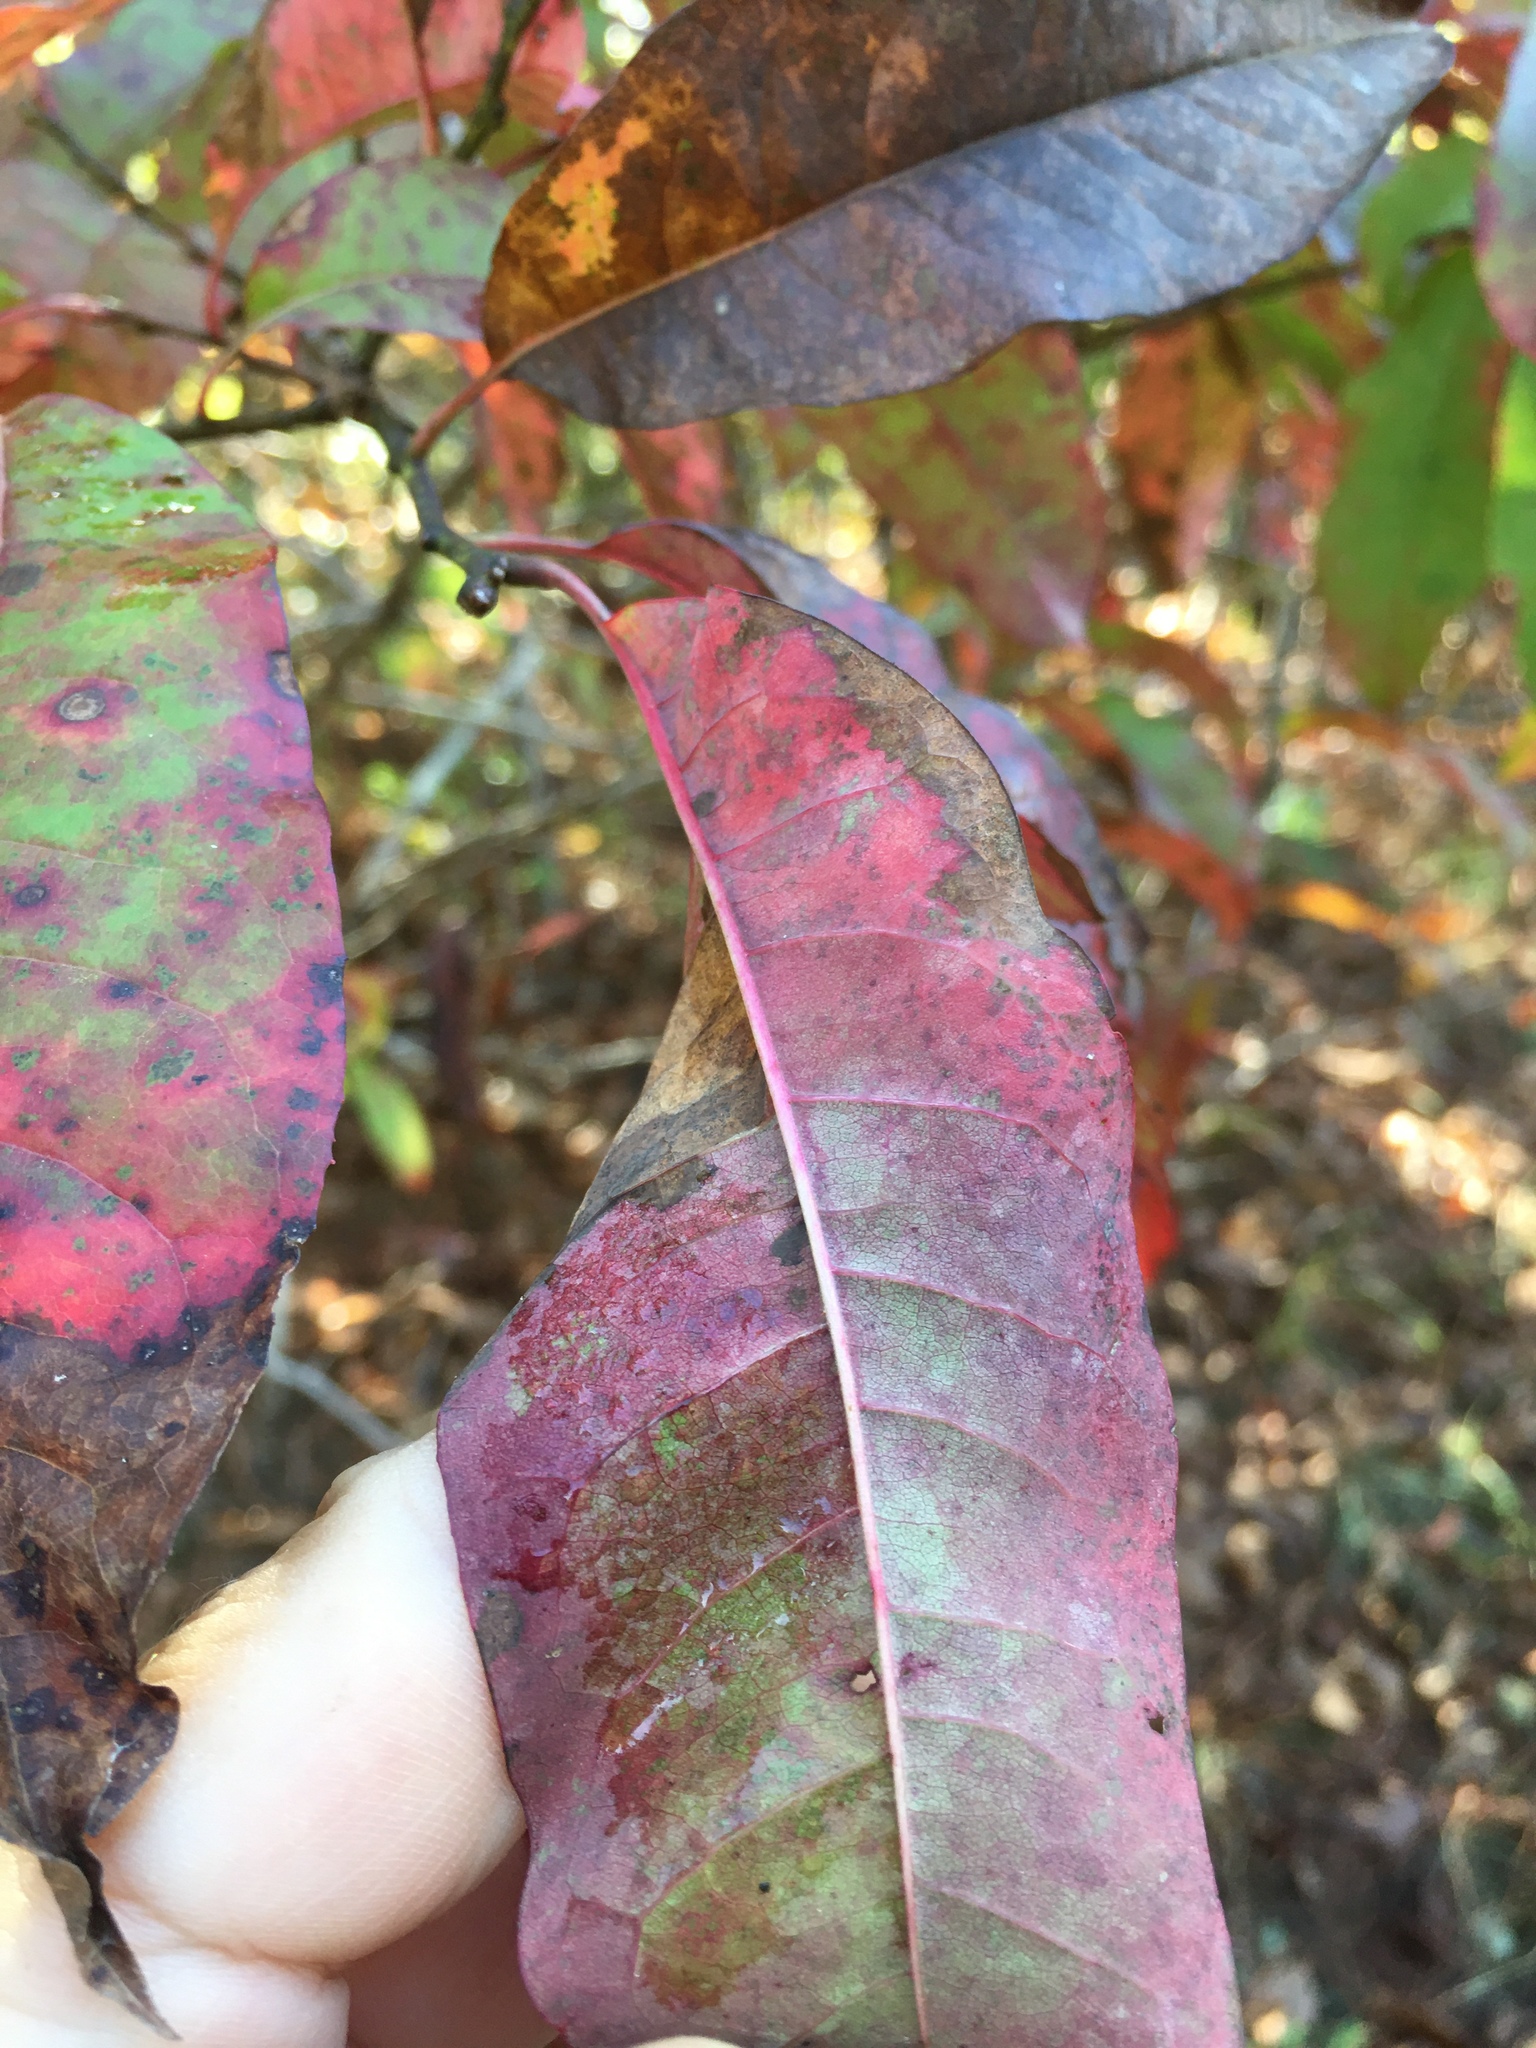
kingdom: Plantae
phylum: Tracheophyta
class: Magnoliopsida
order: Ericales
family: Ericaceae
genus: Oxydendrum
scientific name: Oxydendrum arboreum
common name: Sourwood
